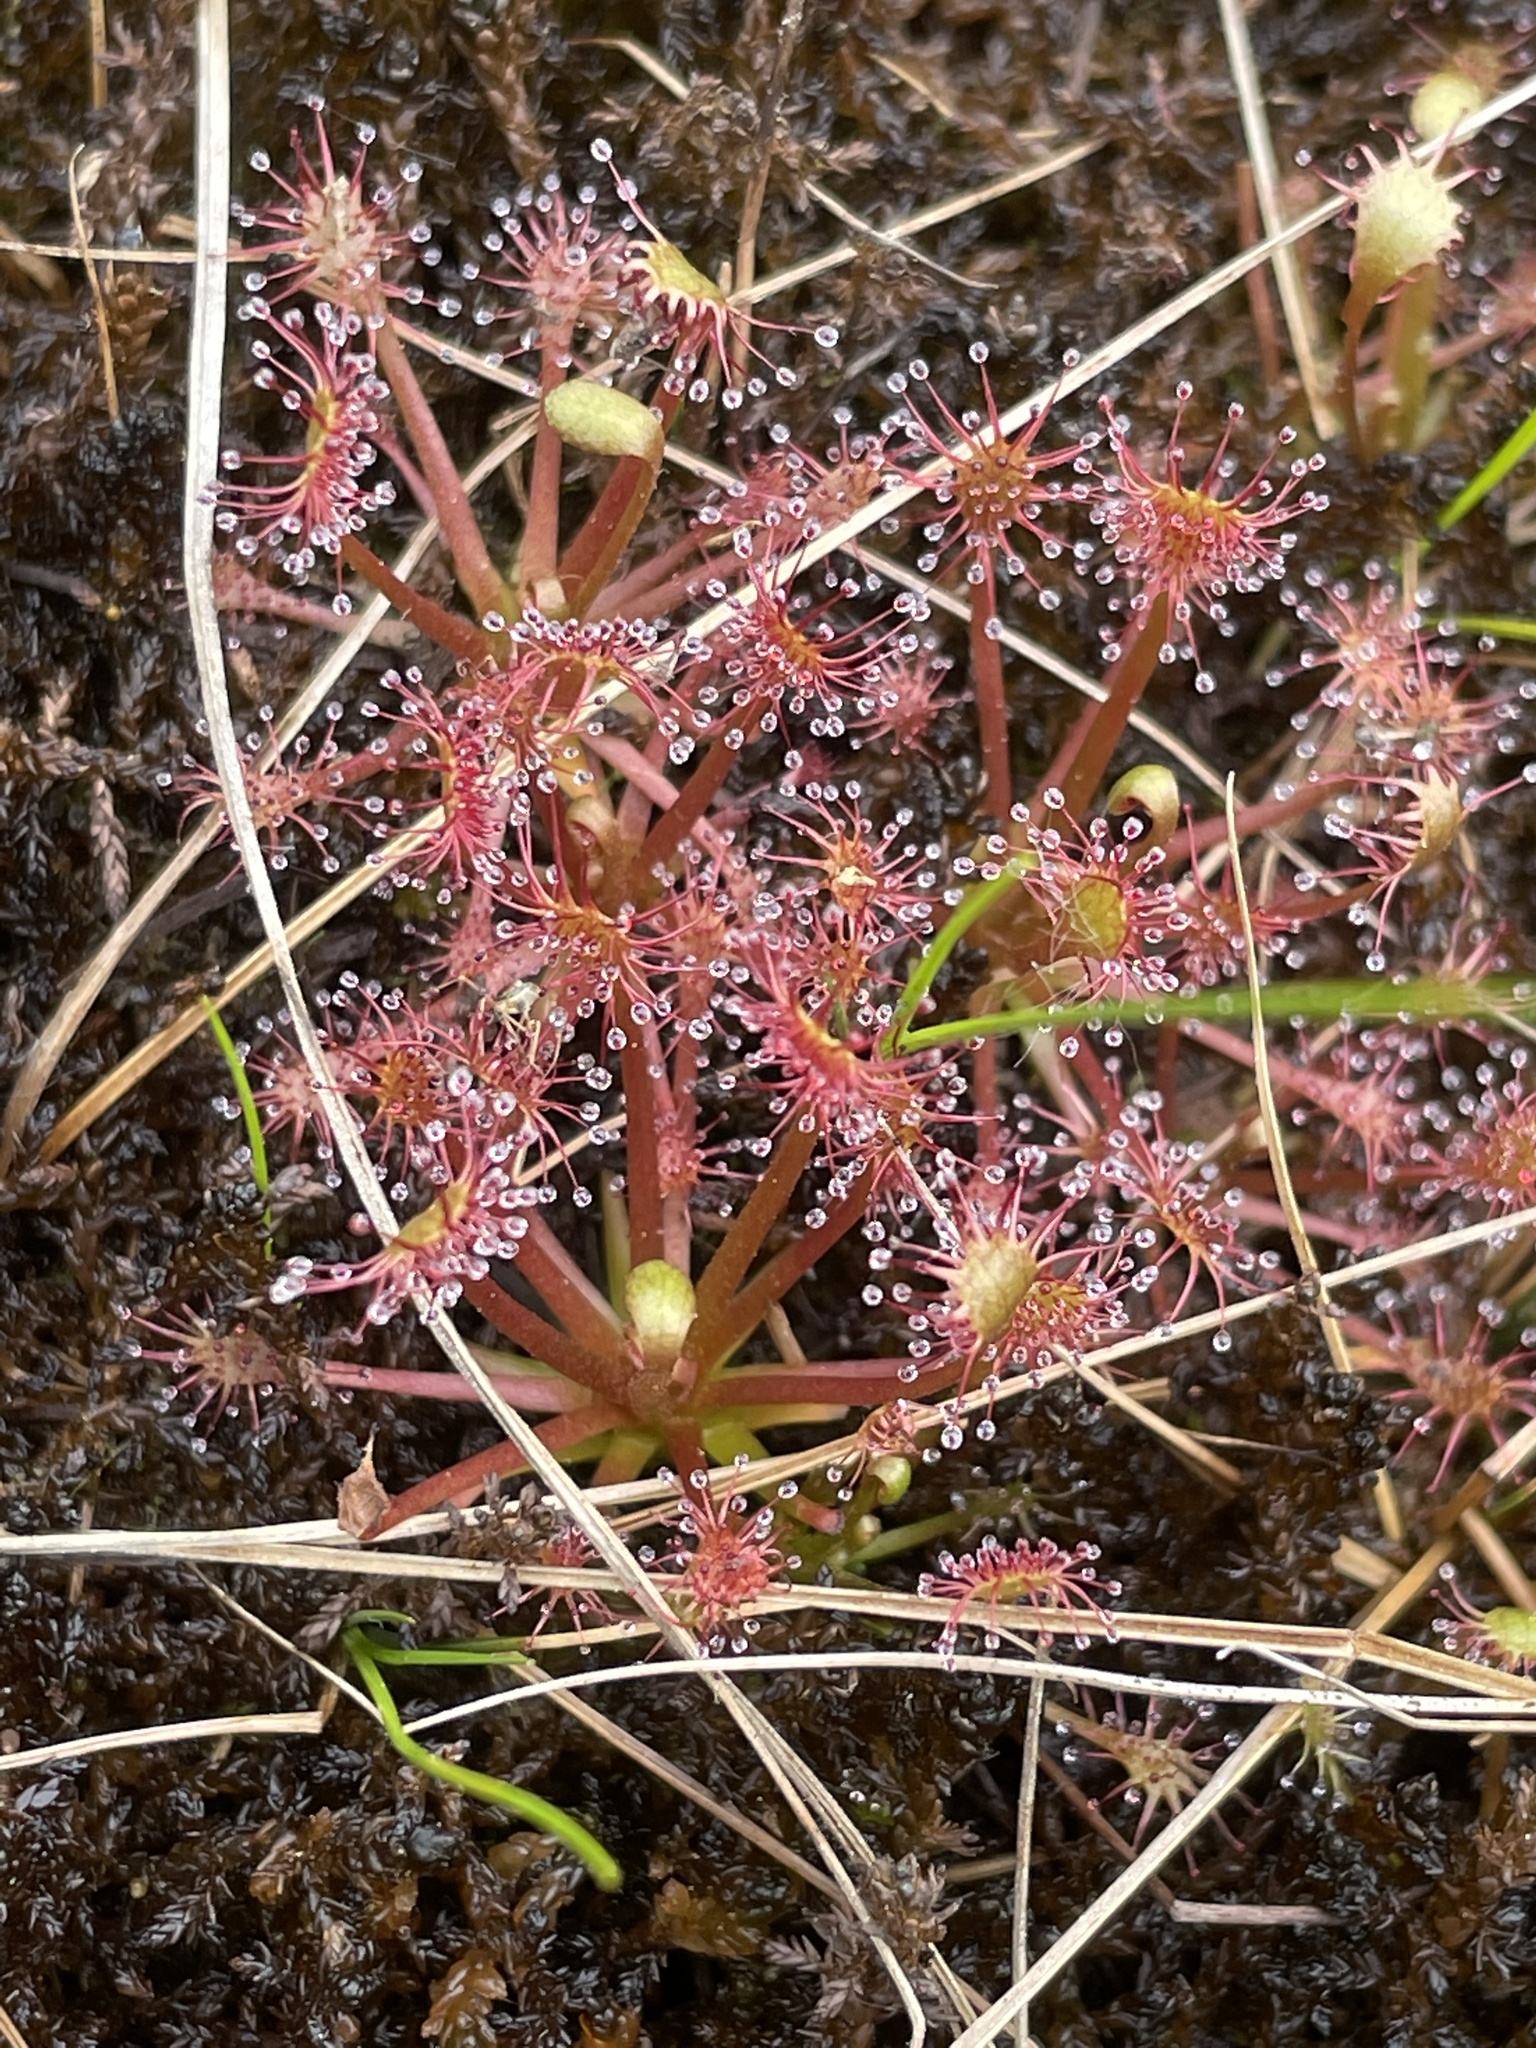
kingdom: Plantae
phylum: Tracheophyta
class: Magnoliopsida
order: Caryophyllales
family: Droseraceae
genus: Drosera
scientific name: Drosera intermedia
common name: Oblong-leaved sundew
